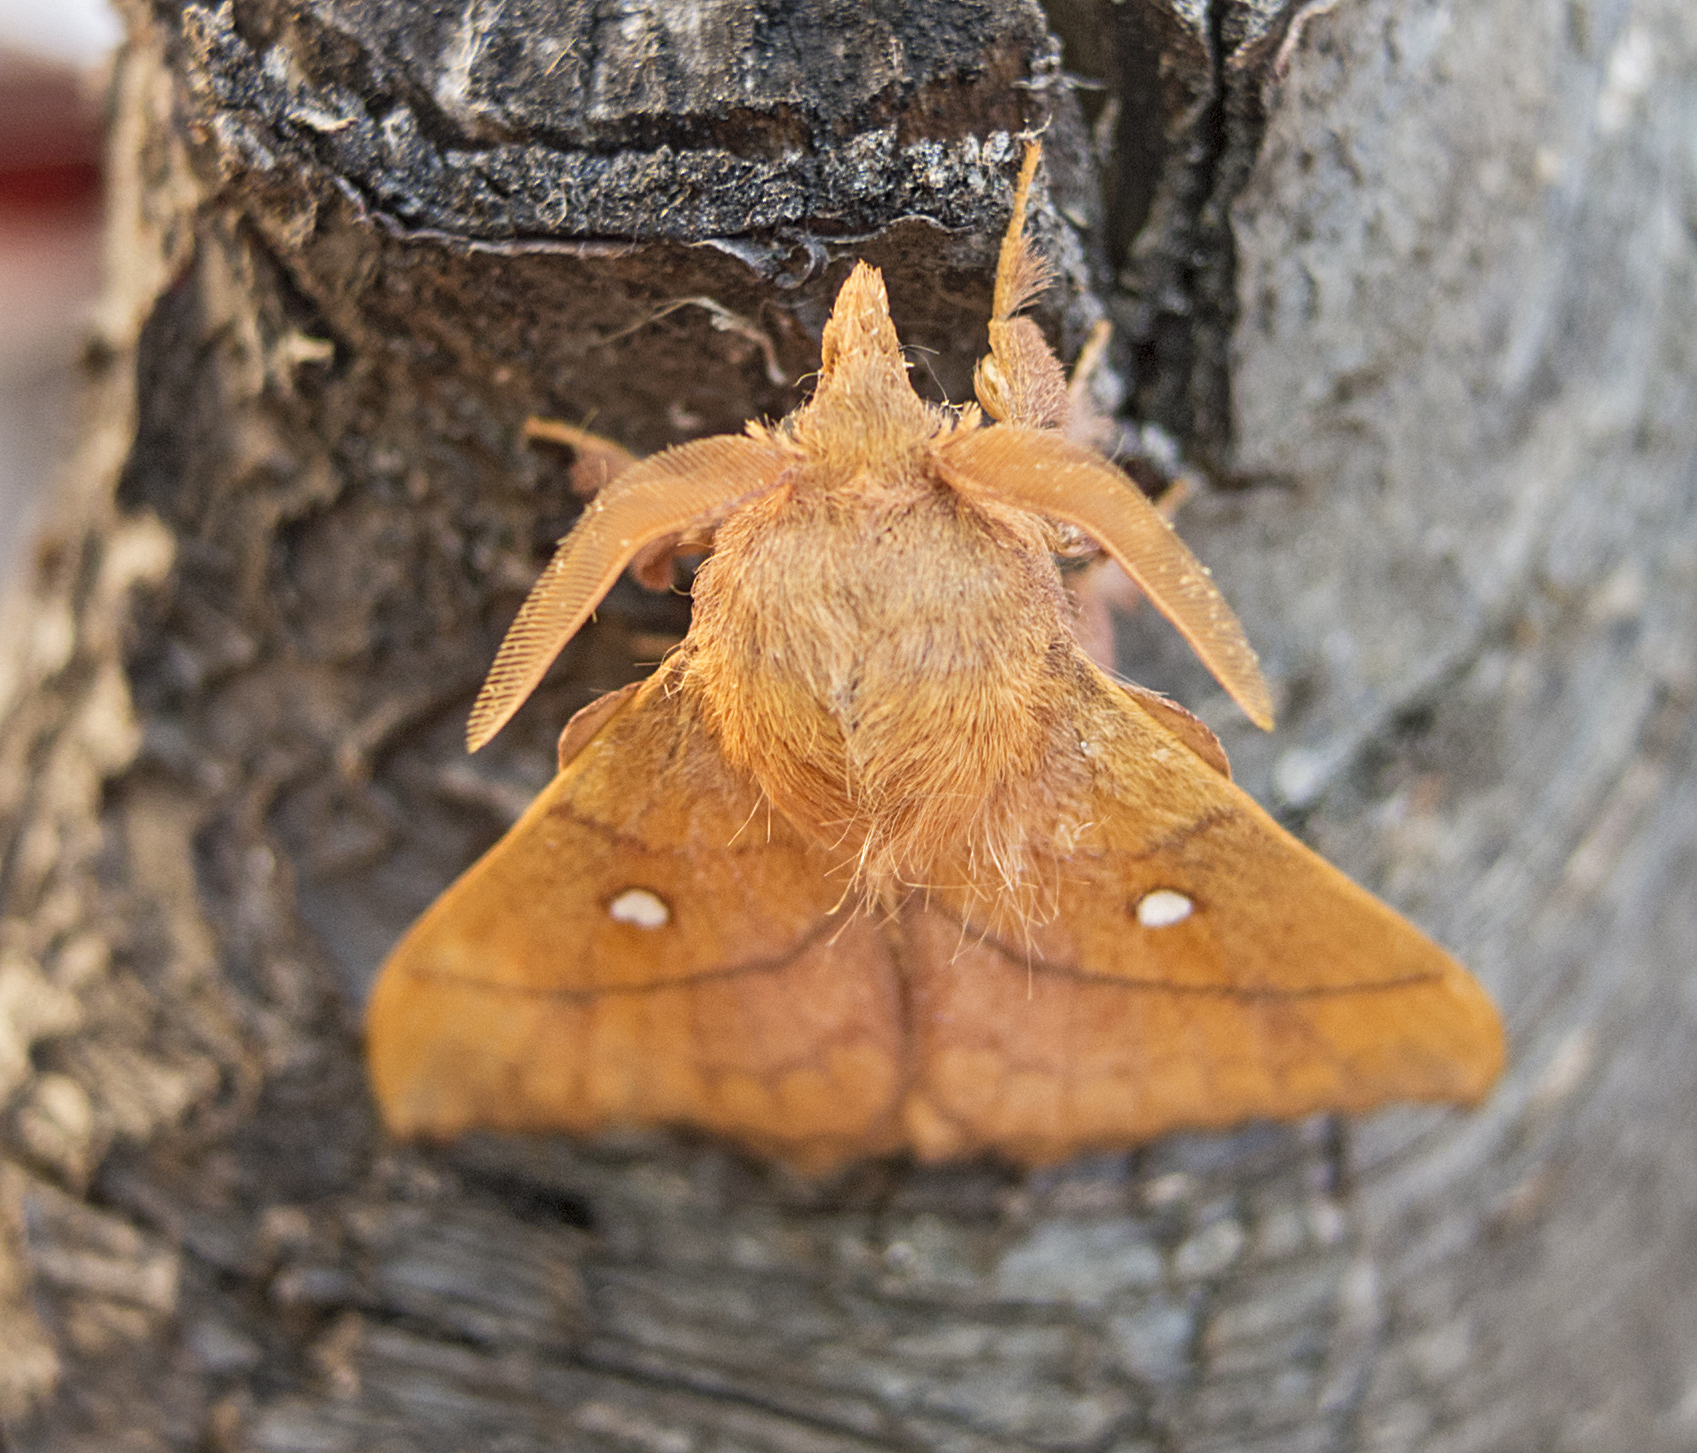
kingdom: Animalia
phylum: Arthropoda
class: Insecta
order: Lepidoptera
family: Lasiocampidae
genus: Odonestis
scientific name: Odonestis pruni
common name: Plum lappet
